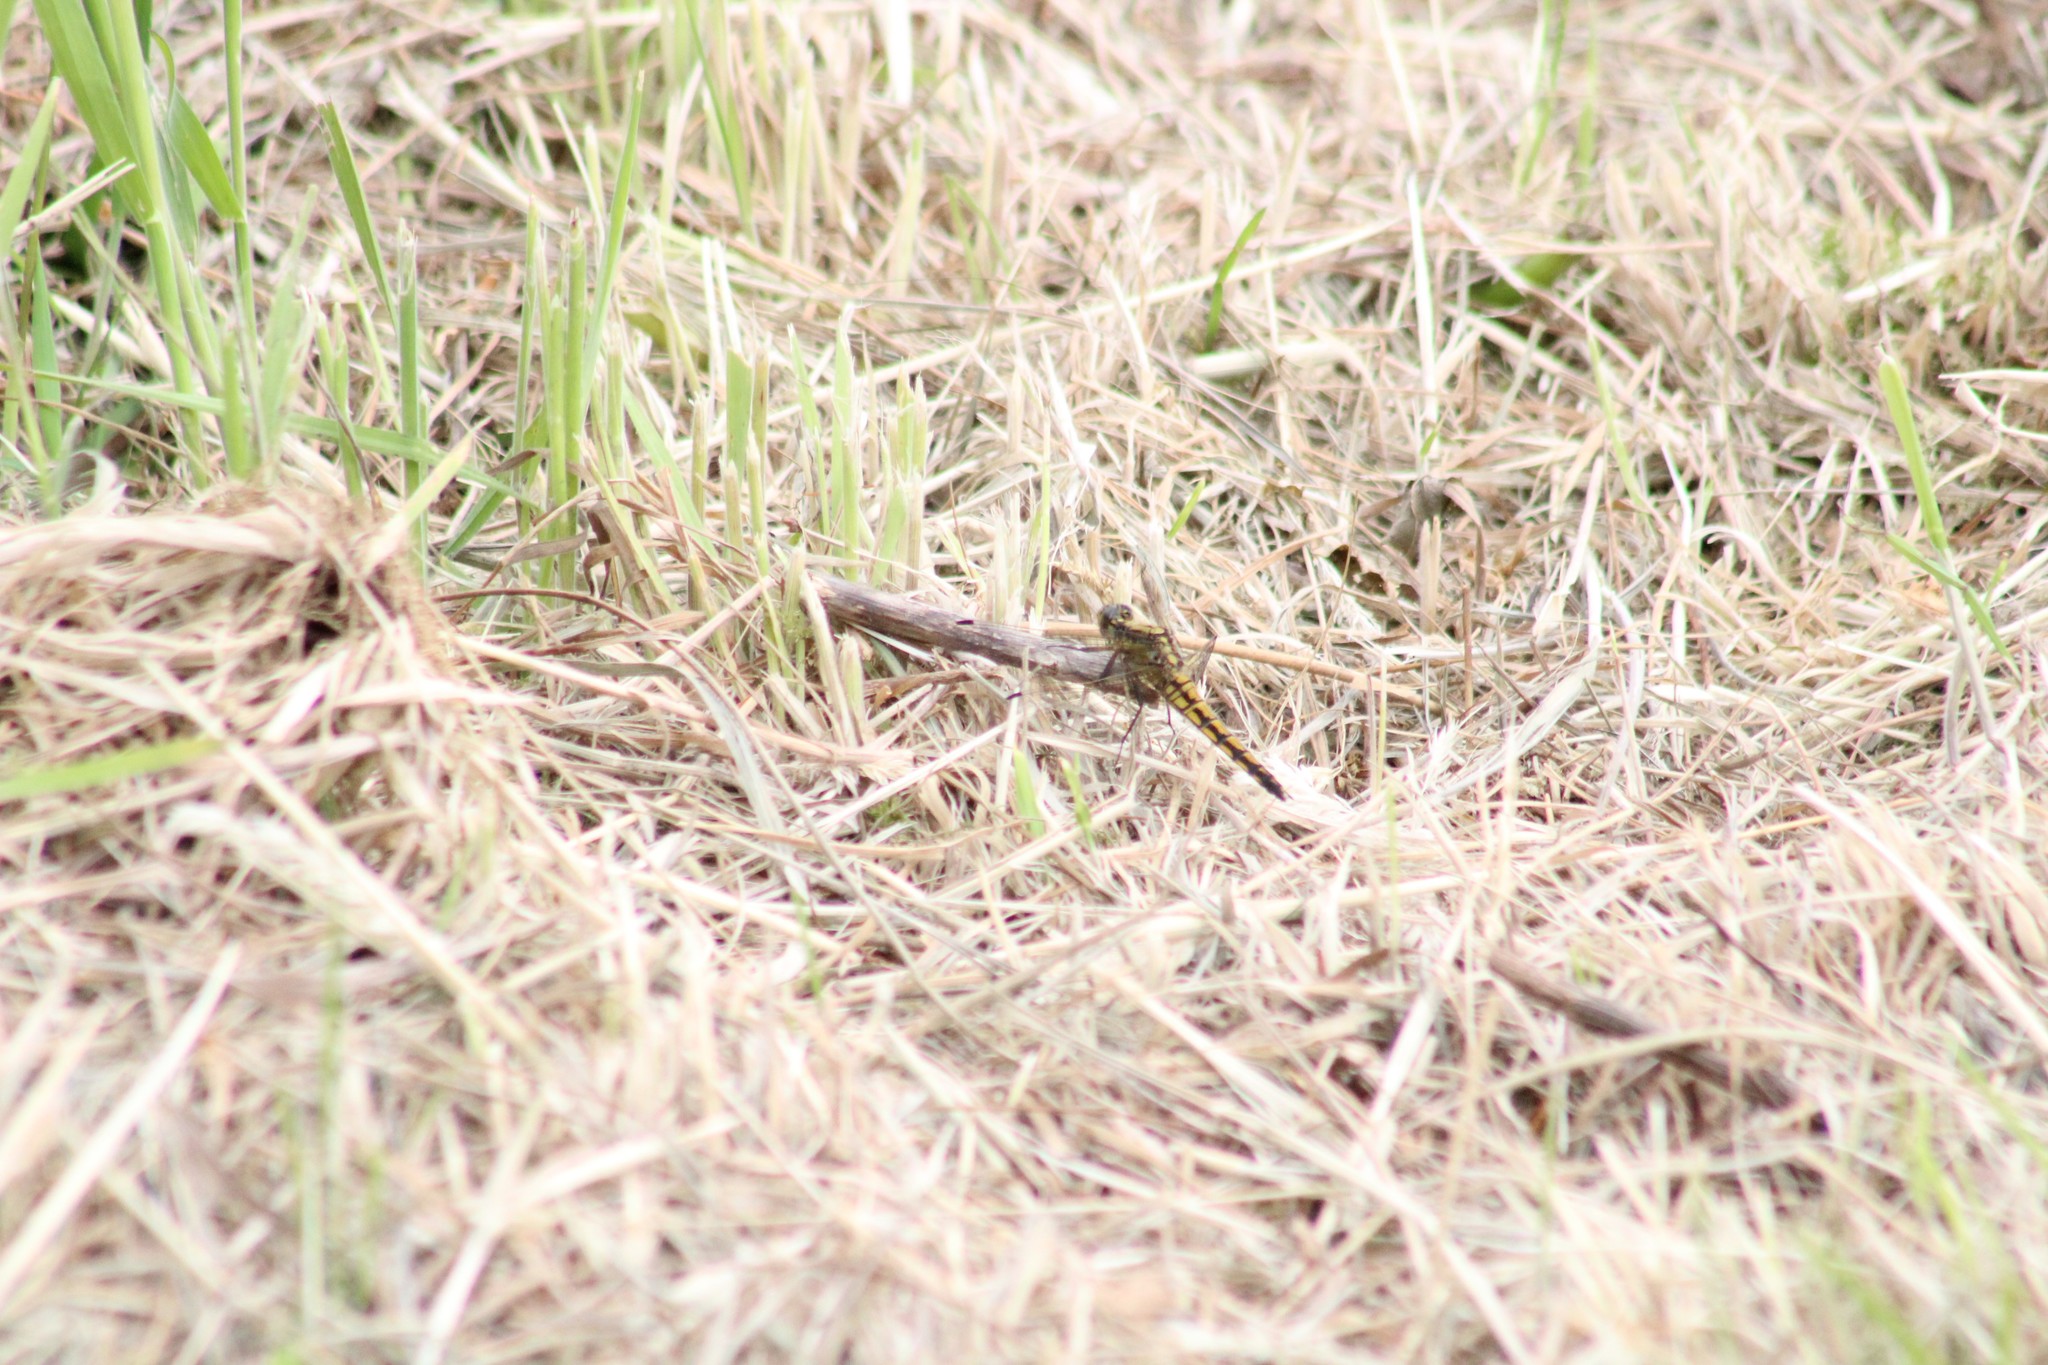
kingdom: Animalia
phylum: Arthropoda
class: Insecta
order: Odonata
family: Libellulidae
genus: Orthetrum
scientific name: Orthetrum cancellatum
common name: Black-tailed skimmer
